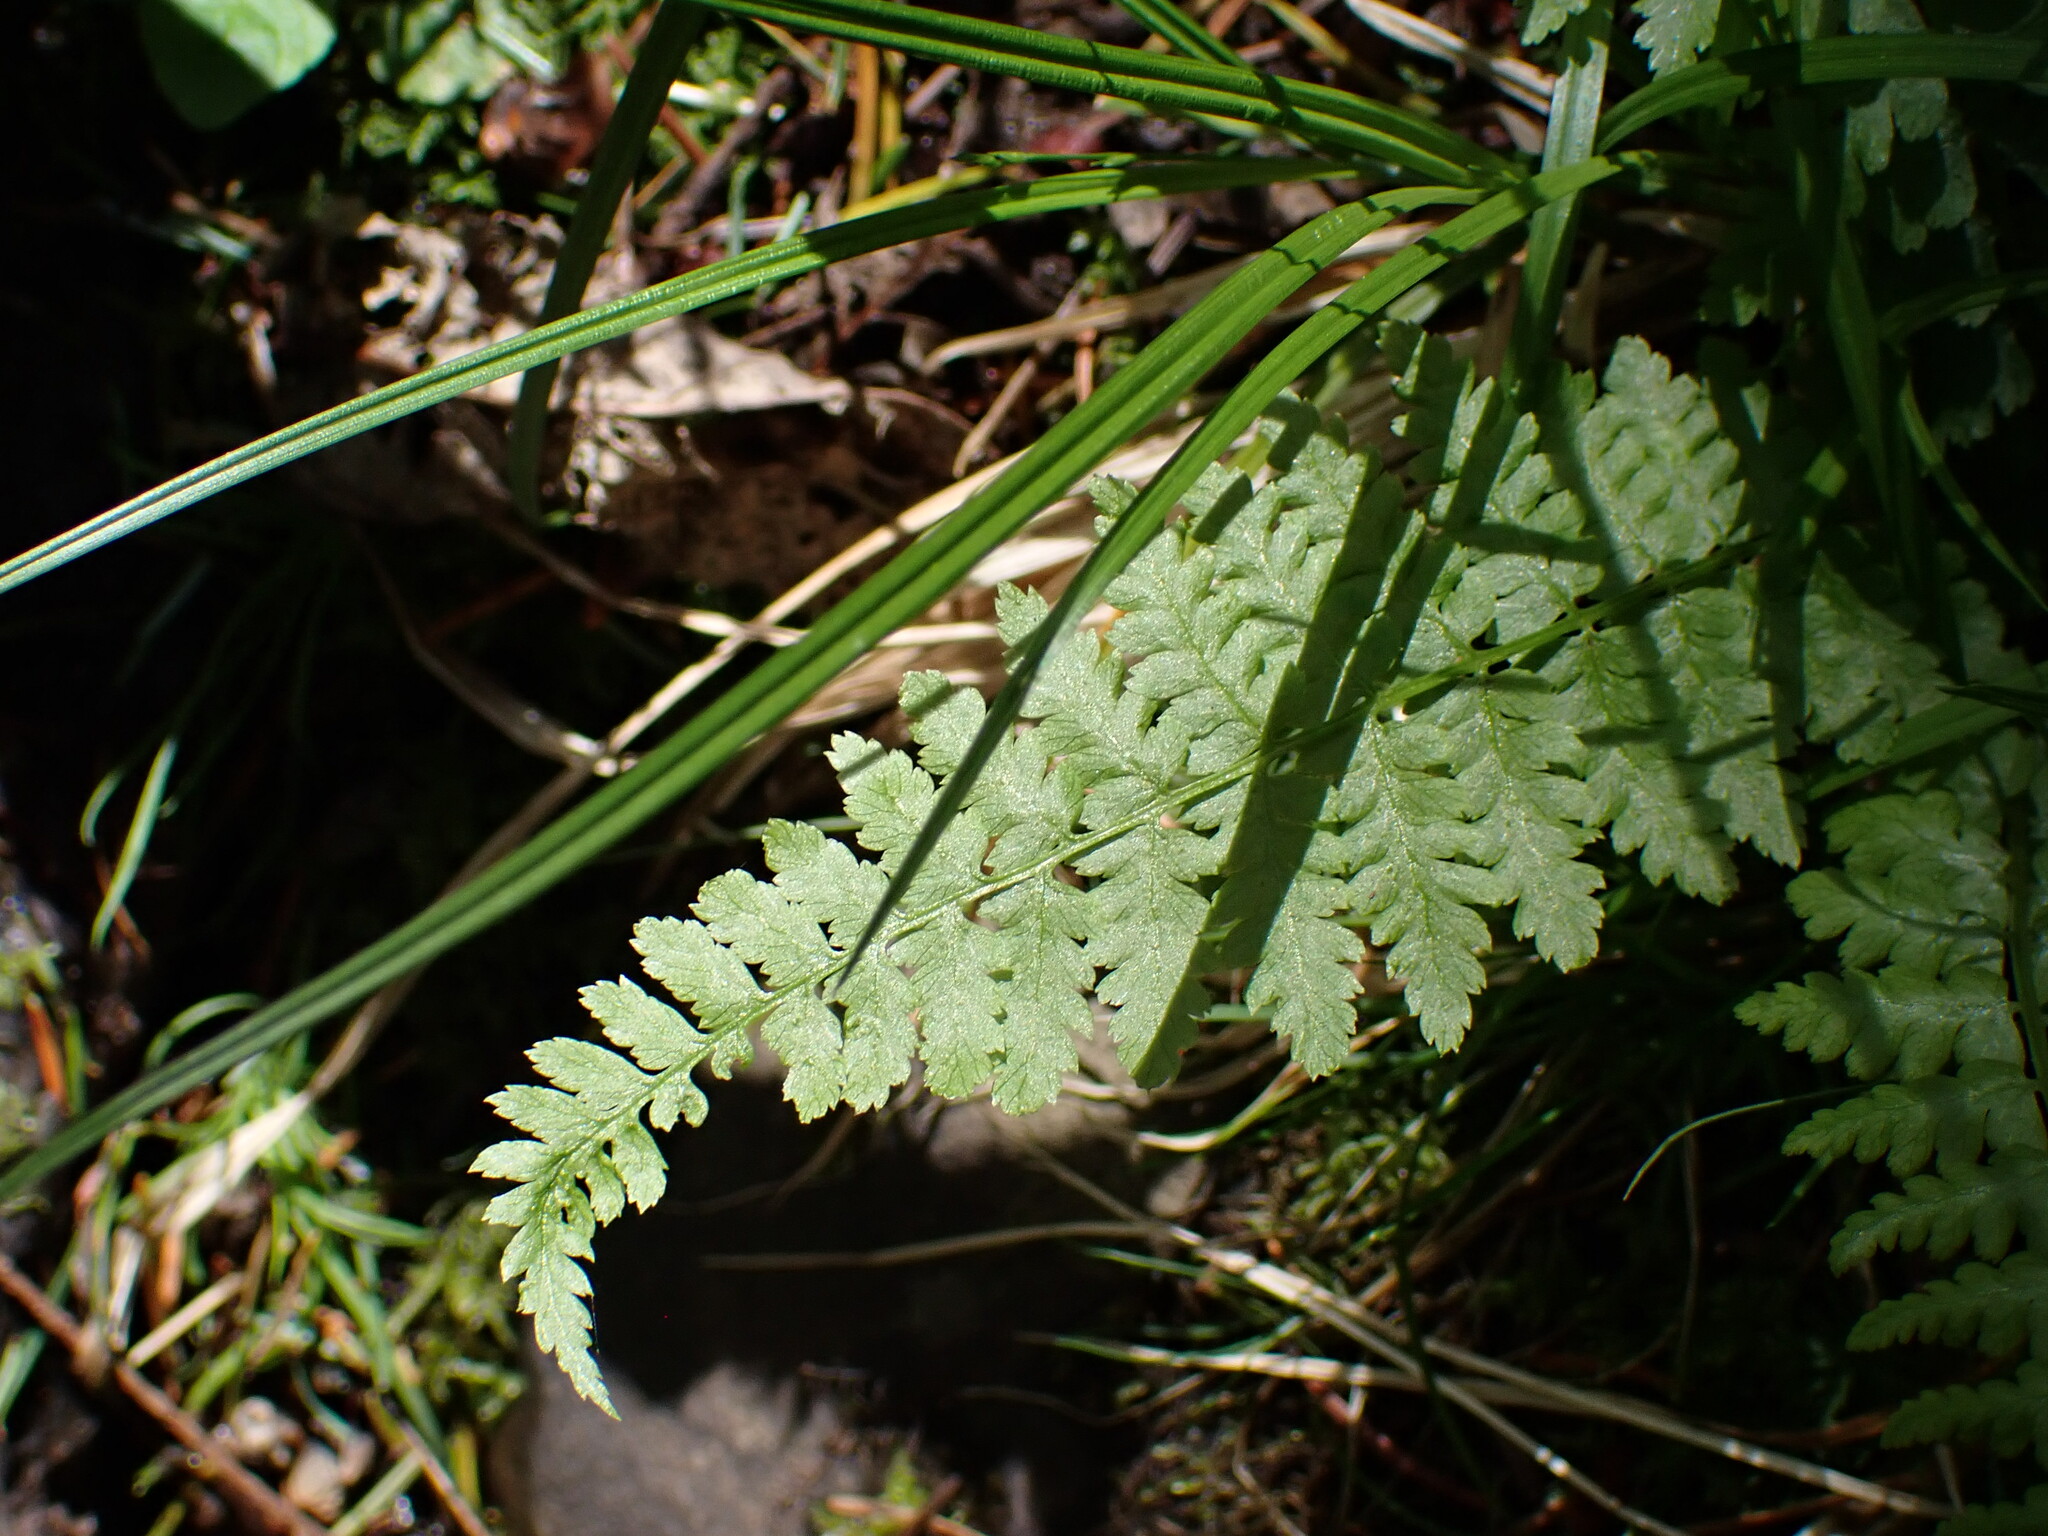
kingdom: Plantae
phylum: Tracheophyta
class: Polypodiopsida
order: Polypodiales
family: Athyriaceae
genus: Athyrium
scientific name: Athyrium filix-femina
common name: Lady fern
